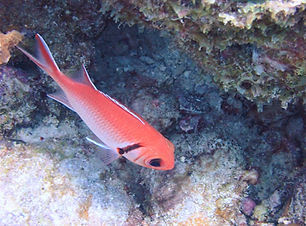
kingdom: Animalia
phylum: Chordata
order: Beryciformes
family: Holocentridae
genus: Myripristis
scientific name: Myripristis jacobus
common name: Blackbar soldierfish
